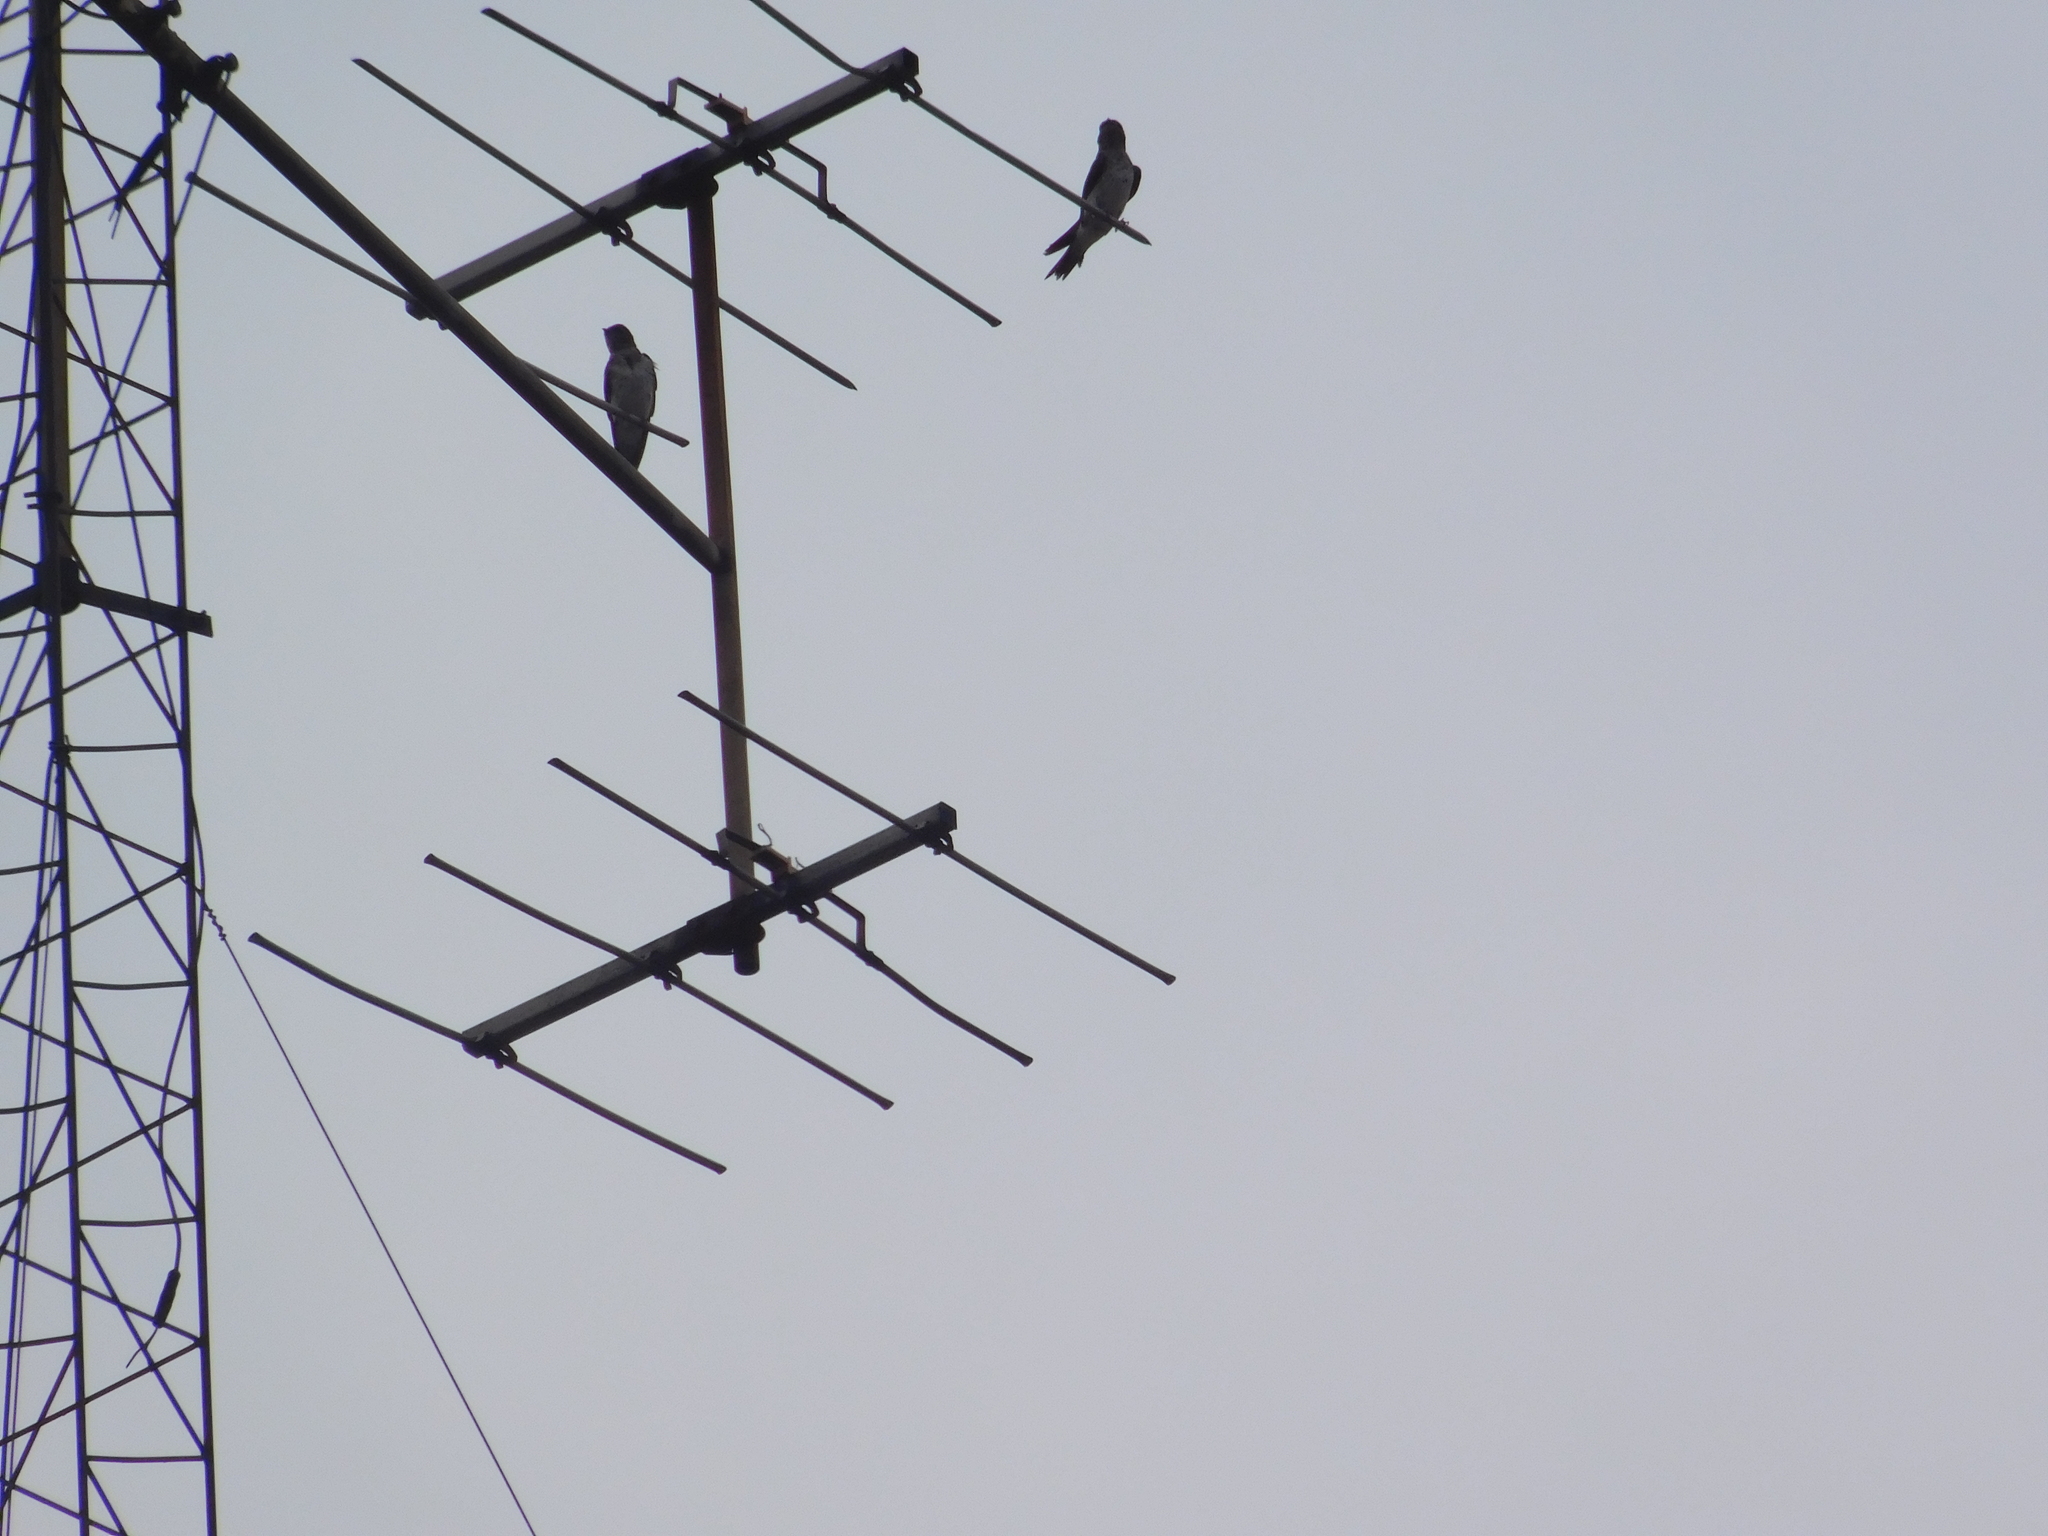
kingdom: Animalia
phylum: Chordata
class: Aves
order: Passeriformes
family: Hirundinidae
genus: Progne
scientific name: Progne chalybea
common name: Grey-breasted martin
